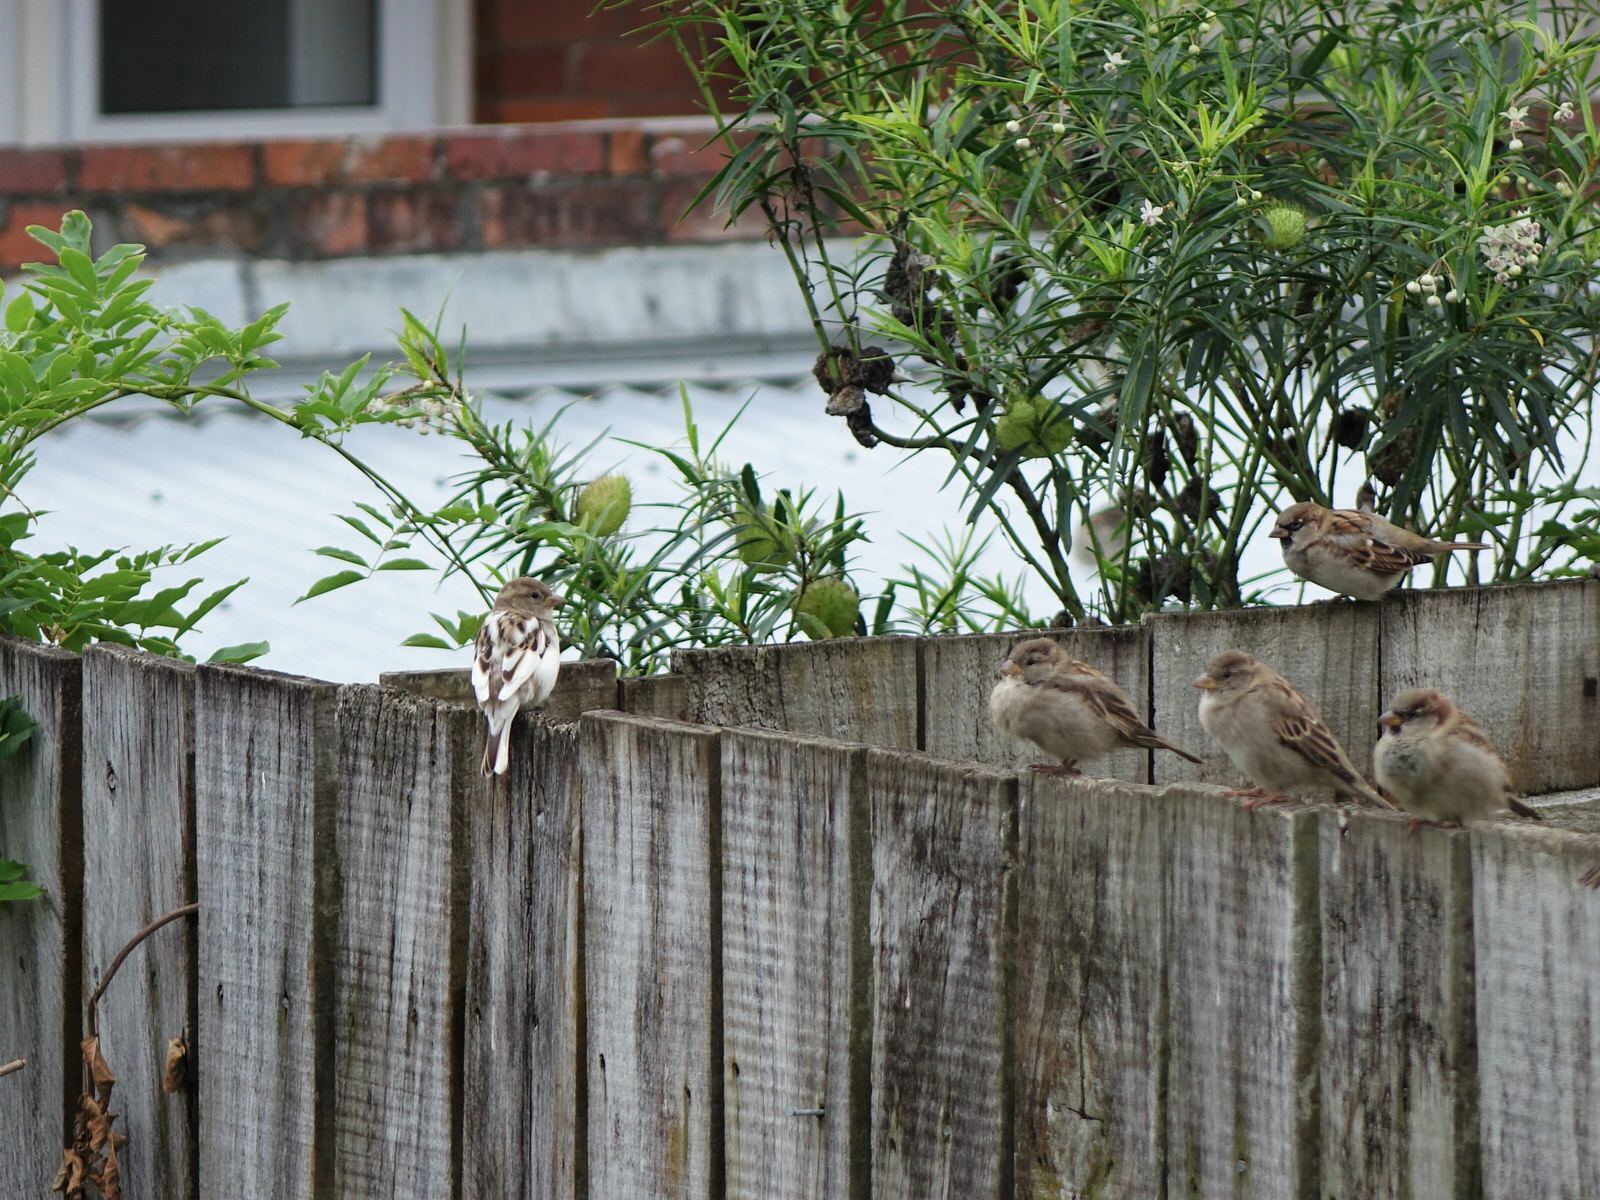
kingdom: Animalia
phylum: Chordata
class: Aves
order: Passeriformes
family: Passeridae
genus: Passer
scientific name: Passer domesticus
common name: House sparrow
